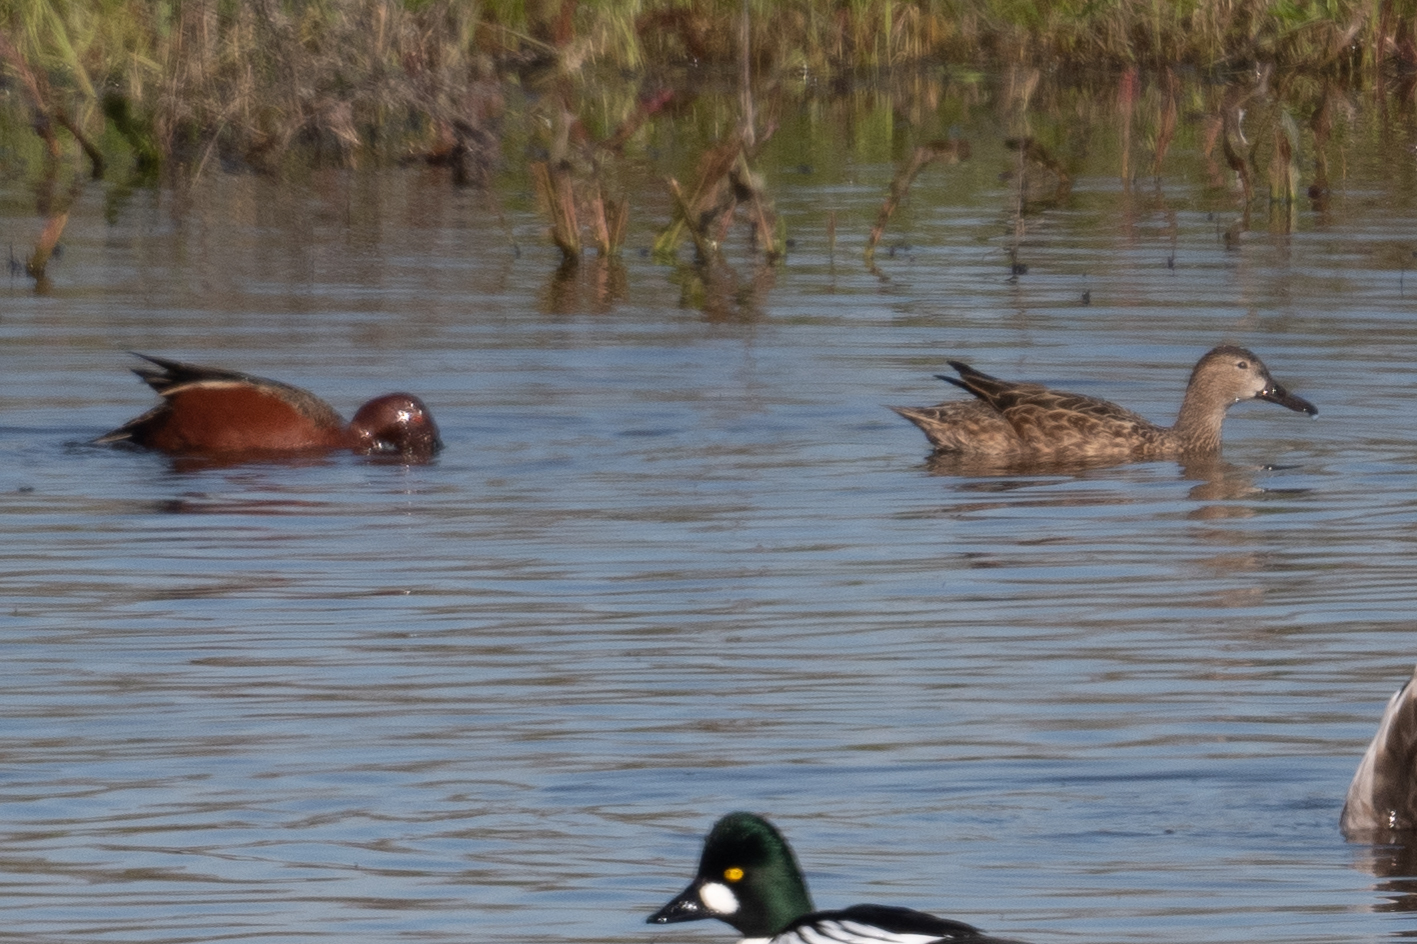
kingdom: Animalia
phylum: Chordata
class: Aves
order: Anseriformes
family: Anatidae
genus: Spatula
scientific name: Spatula cyanoptera
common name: Cinnamon teal
